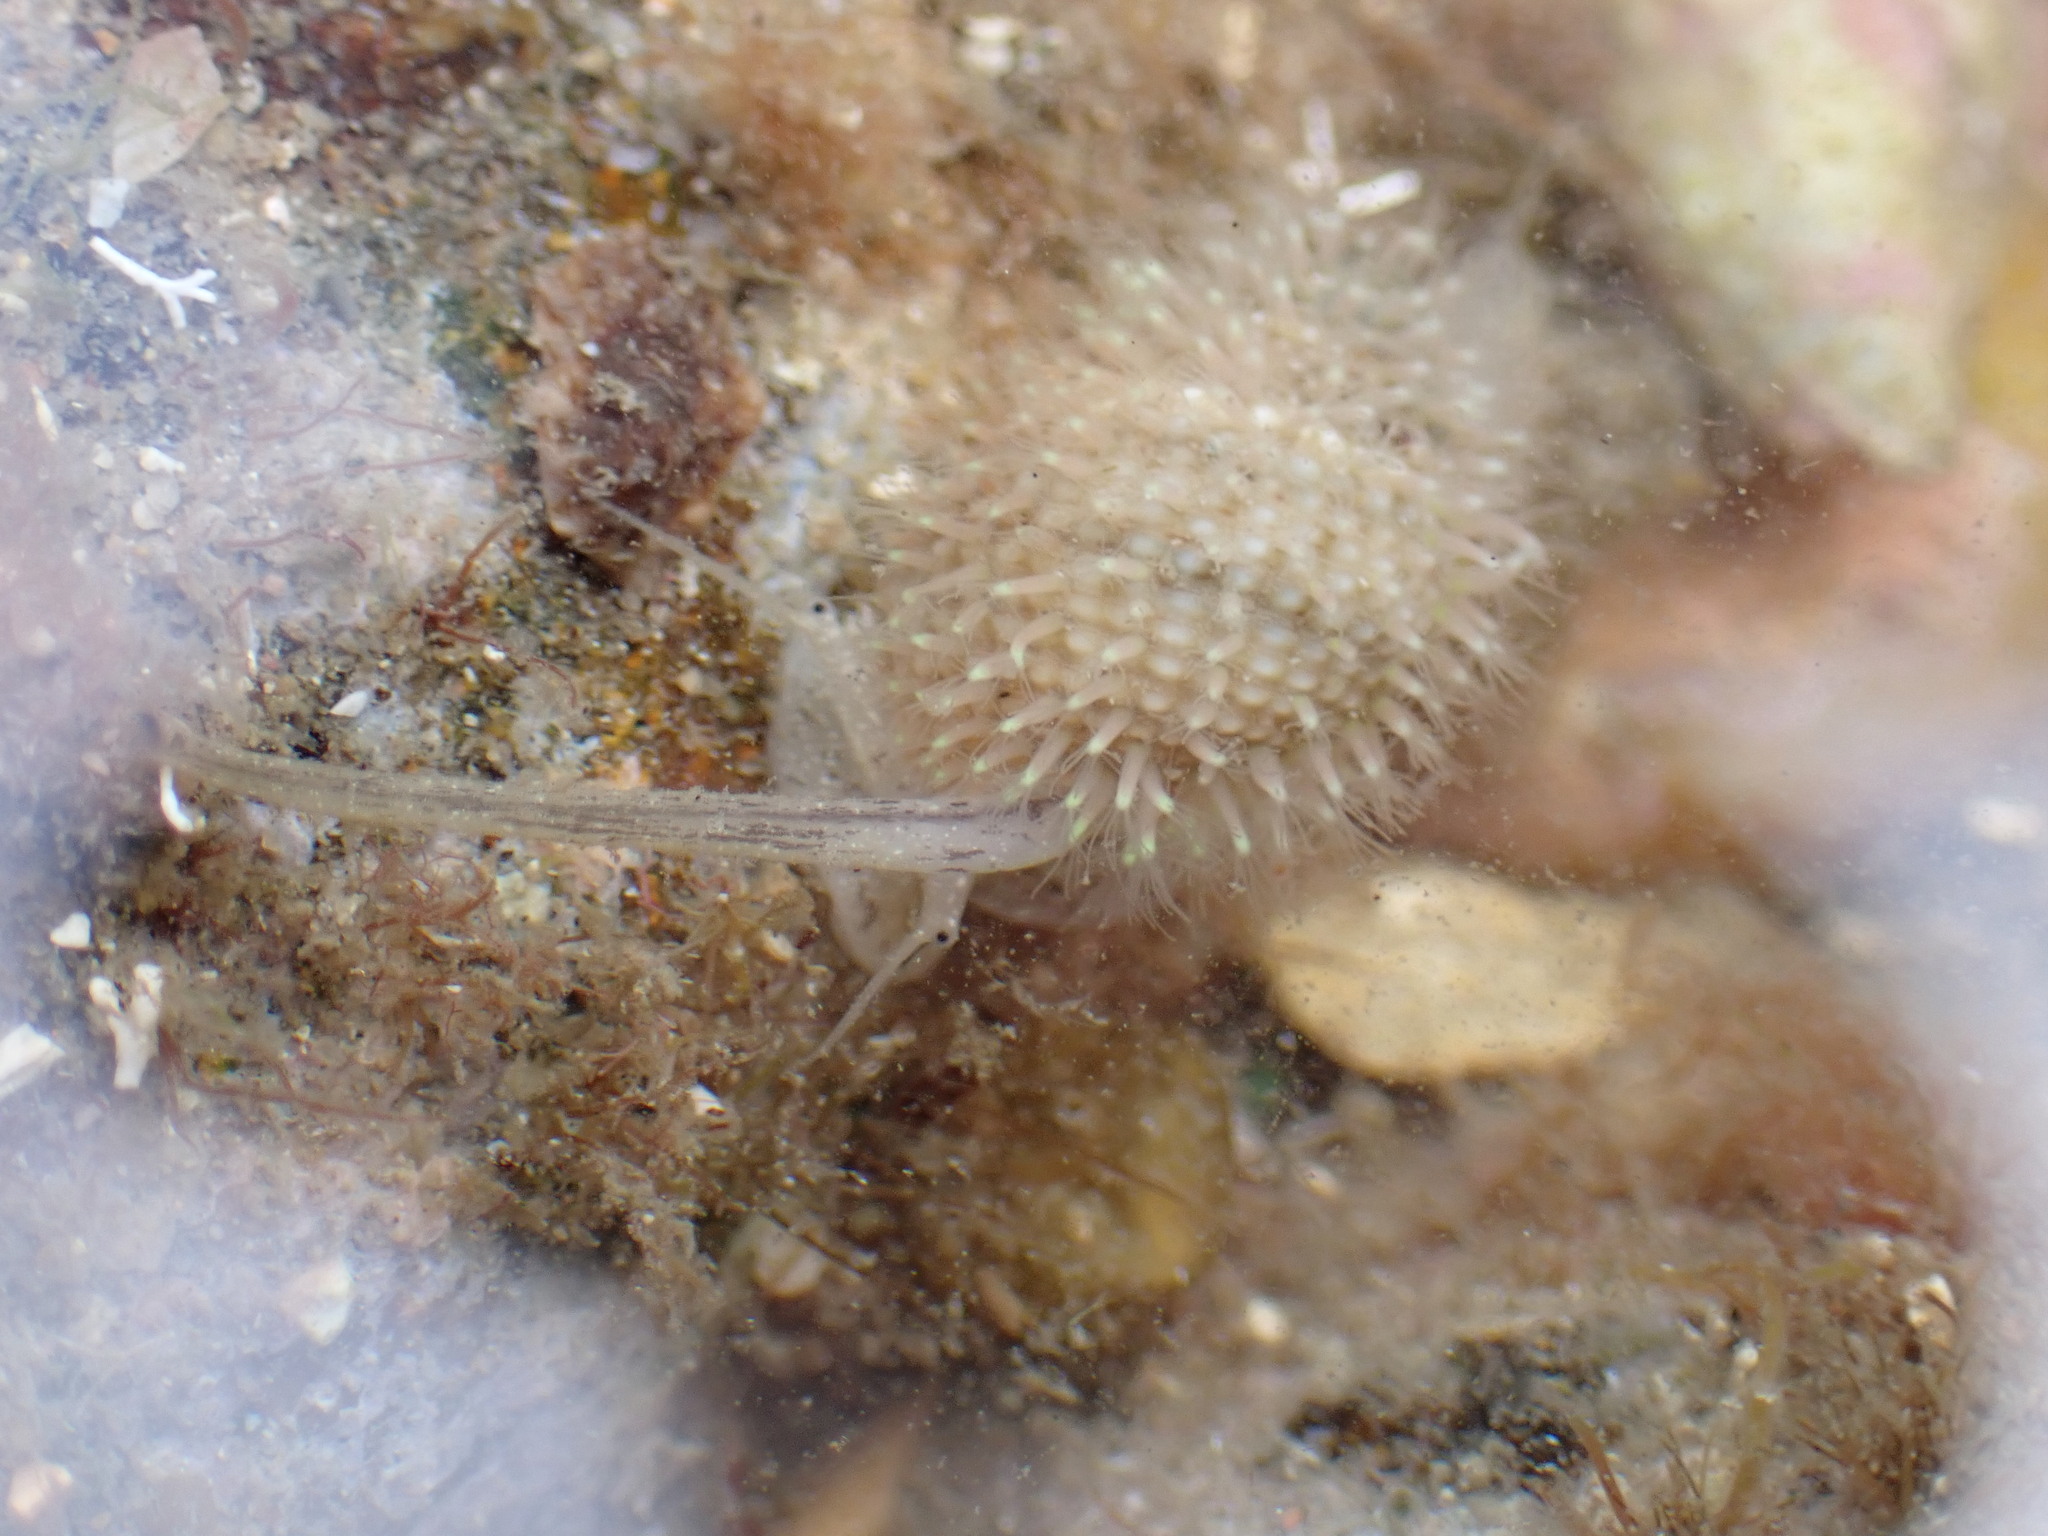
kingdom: Animalia
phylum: Mollusca
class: Gastropoda
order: Neogastropoda
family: Nassariidae
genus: Nassarius
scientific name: Nassarius albescens
